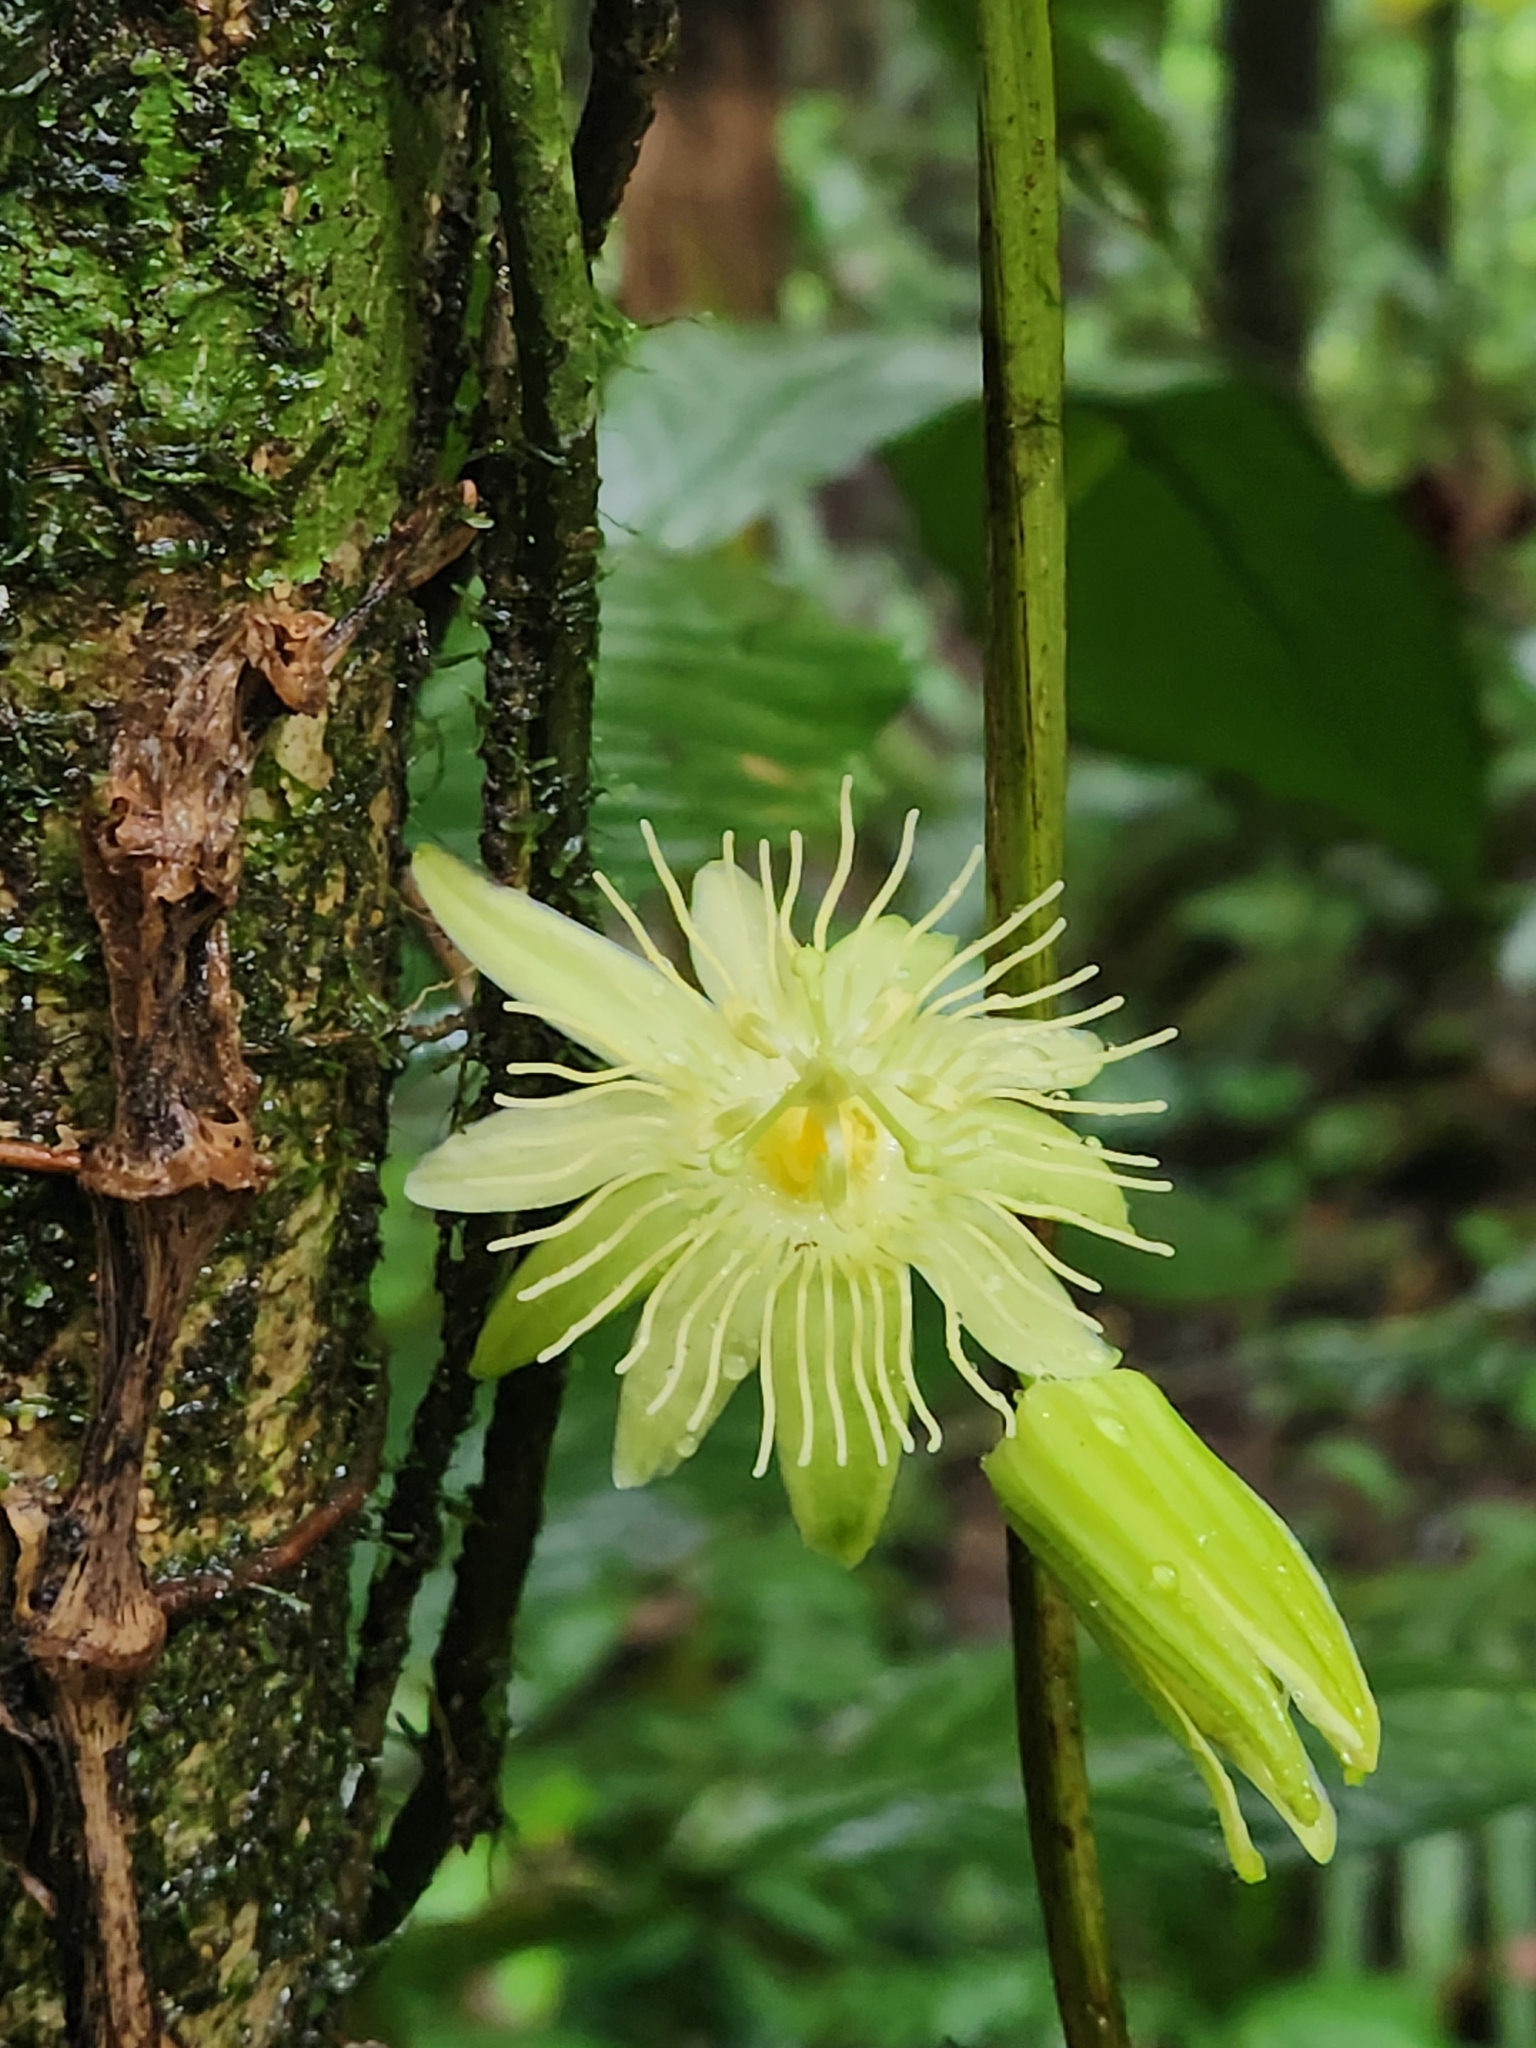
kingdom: Plantae
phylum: Tracheophyta
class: Magnoliopsida
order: Malpighiales
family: Passifloraceae
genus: Passiflora
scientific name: Passiflora costaricensis
